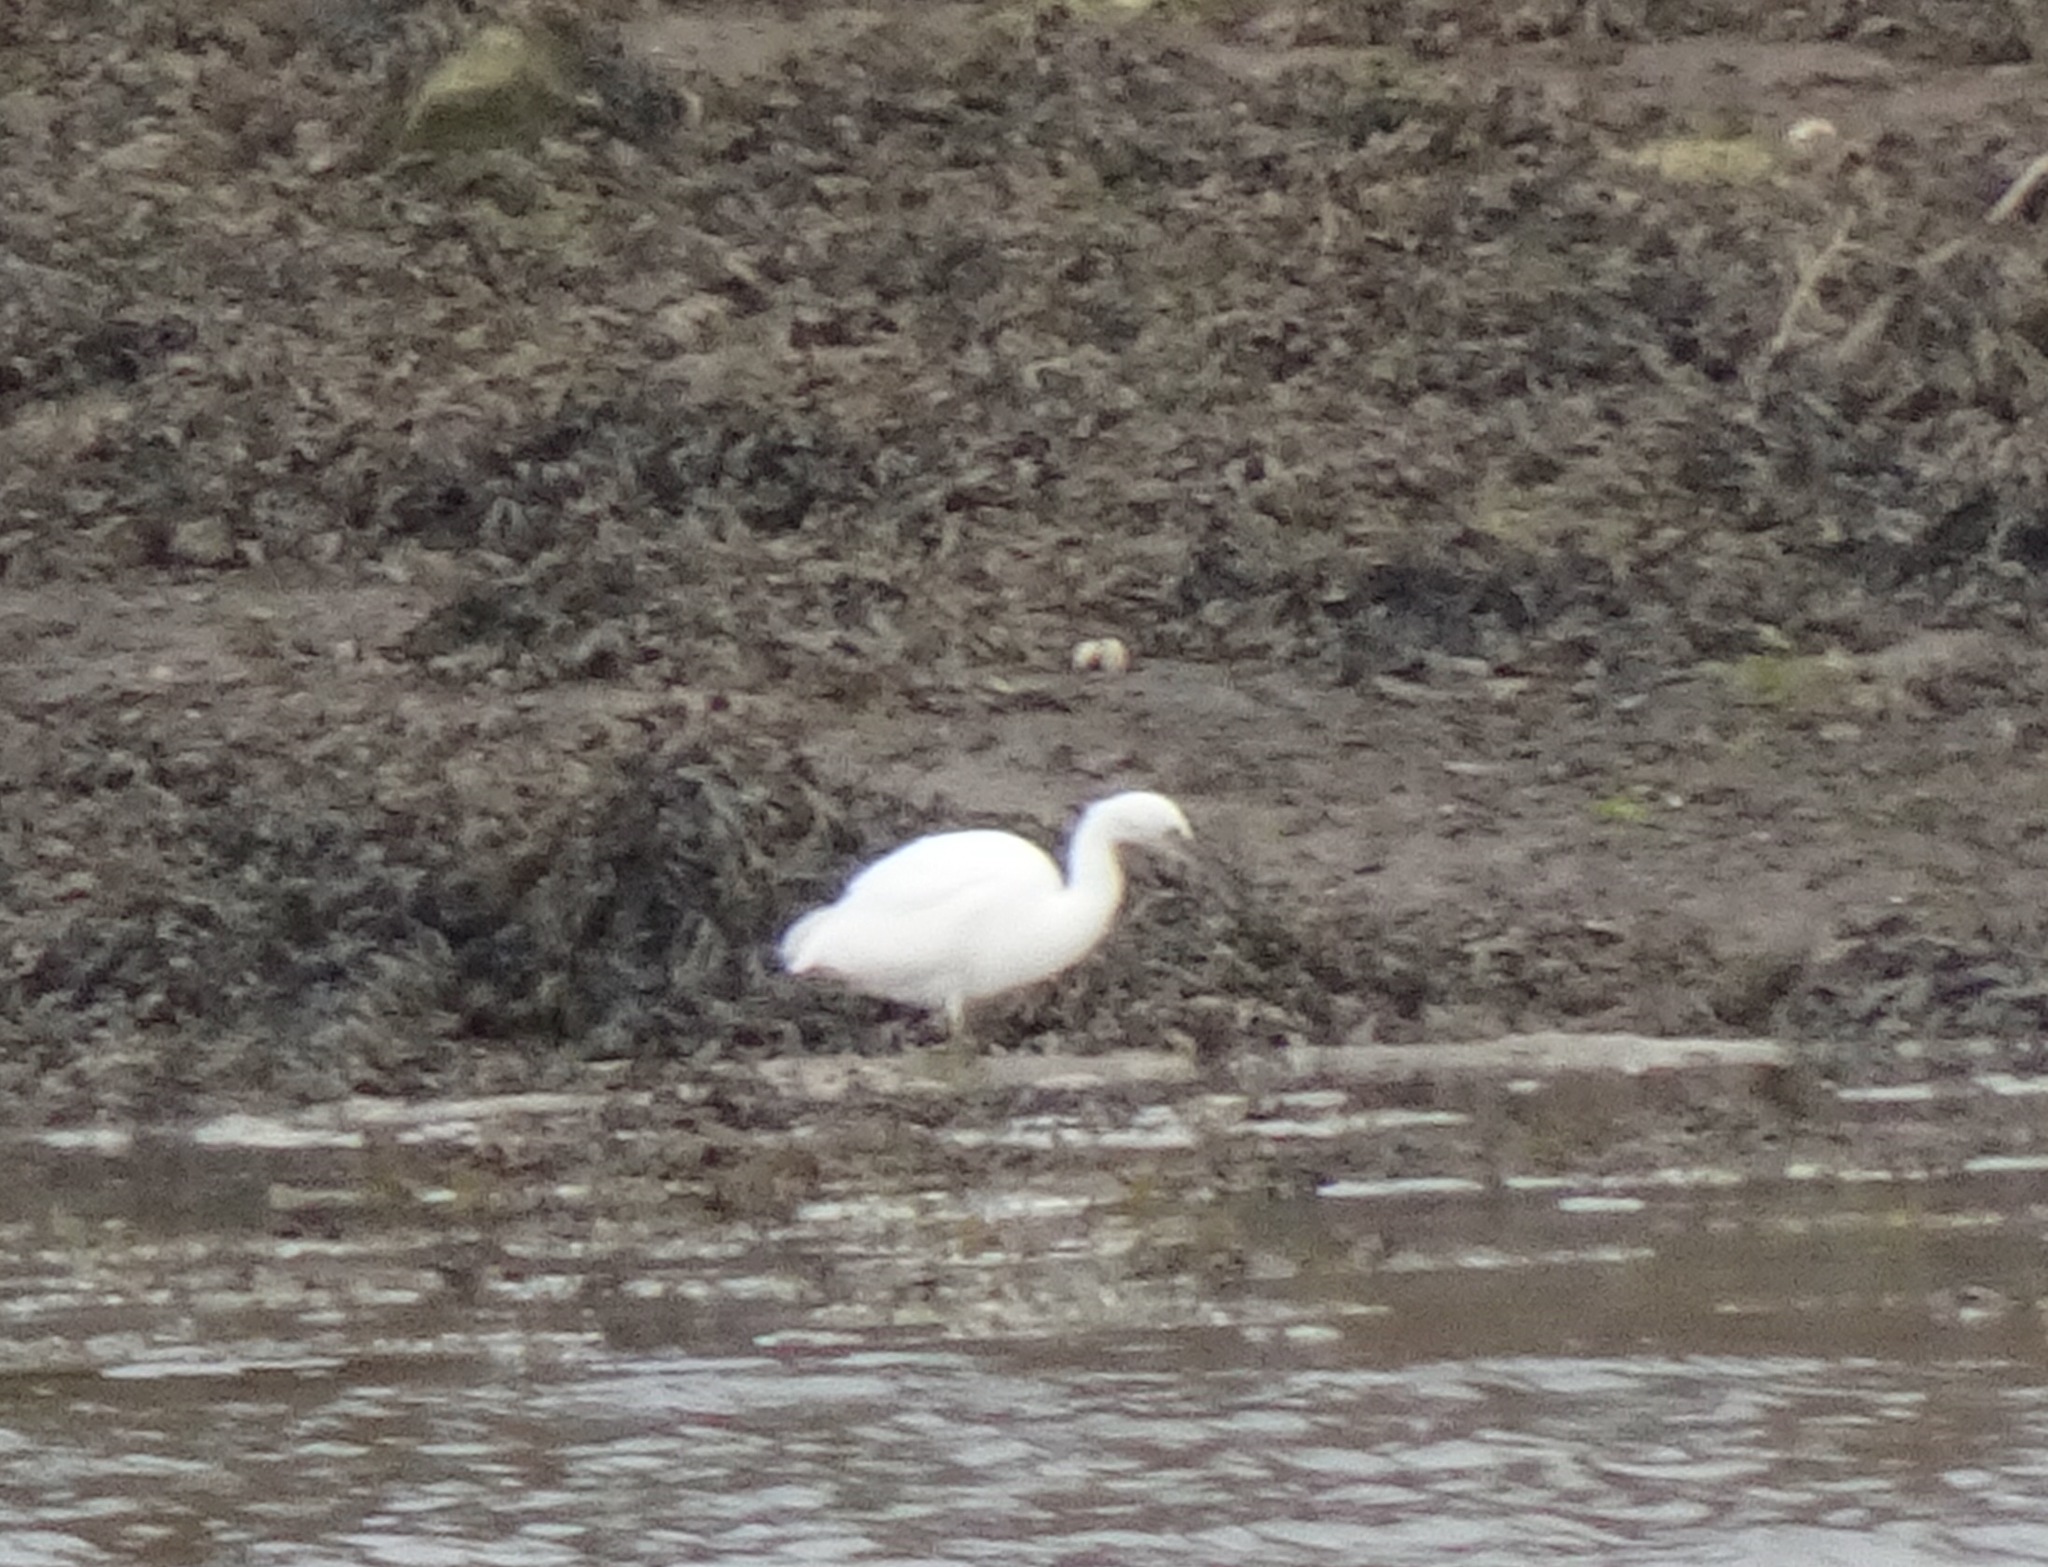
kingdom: Animalia
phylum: Chordata
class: Aves
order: Pelecaniformes
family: Ardeidae
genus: Egretta
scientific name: Egretta garzetta
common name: Little egret
